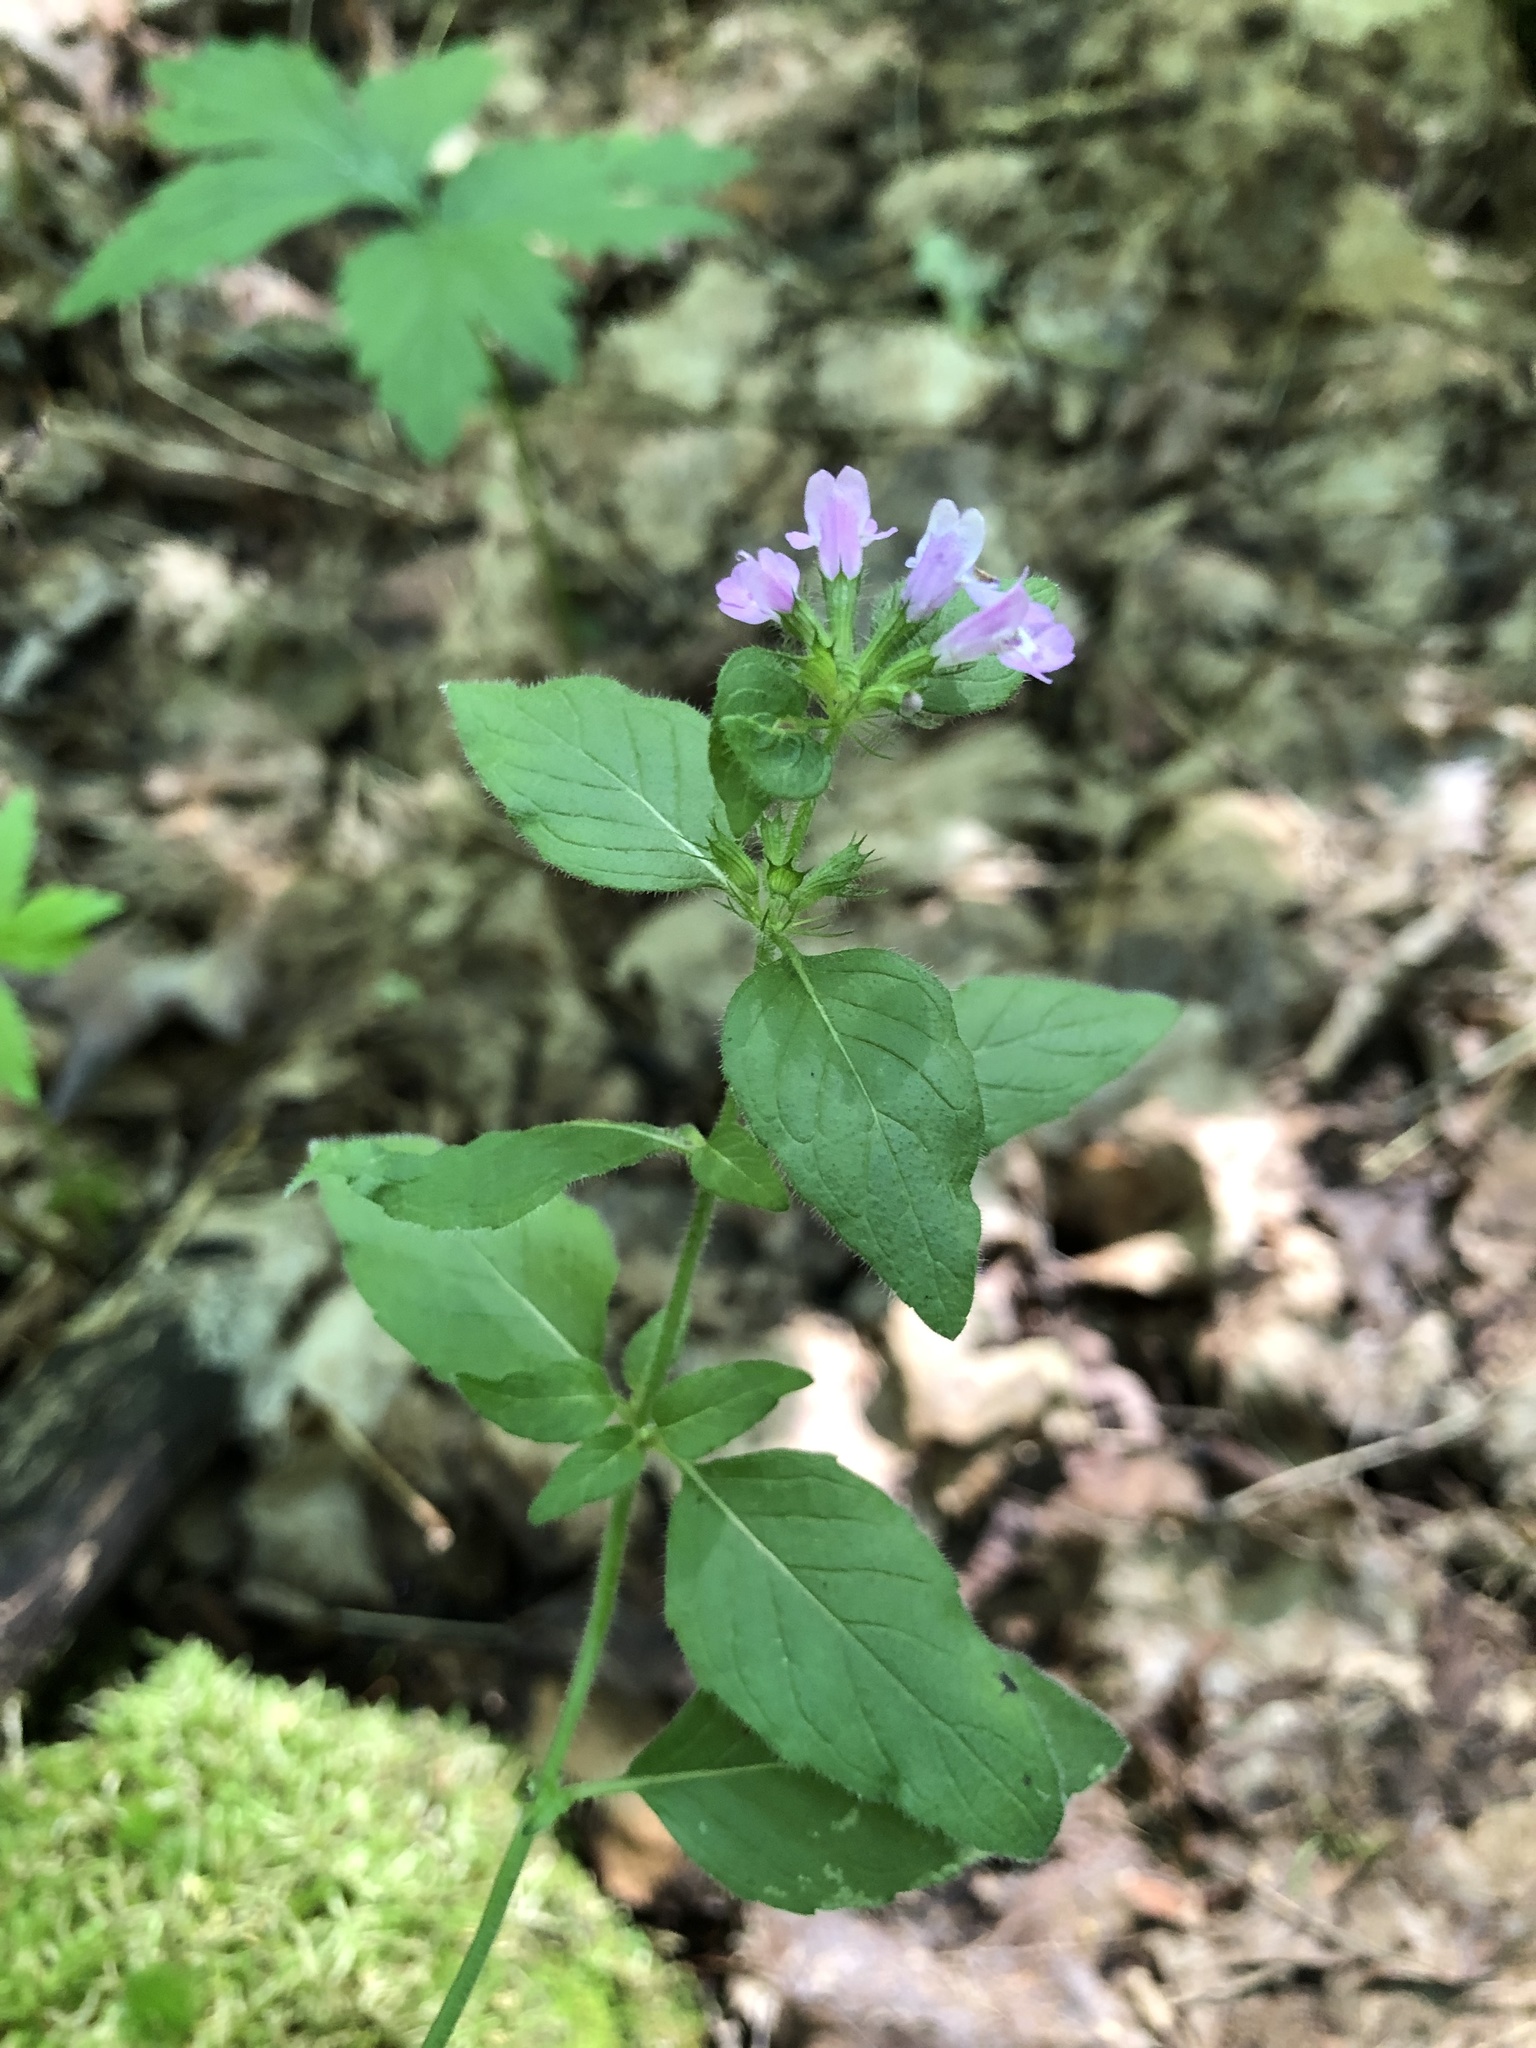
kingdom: Plantae
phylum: Tracheophyta
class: Magnoliopsida
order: Lamiales
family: Lamiaceae
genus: Clinopodium
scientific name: Clinopodium vulgare
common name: Wild basil
